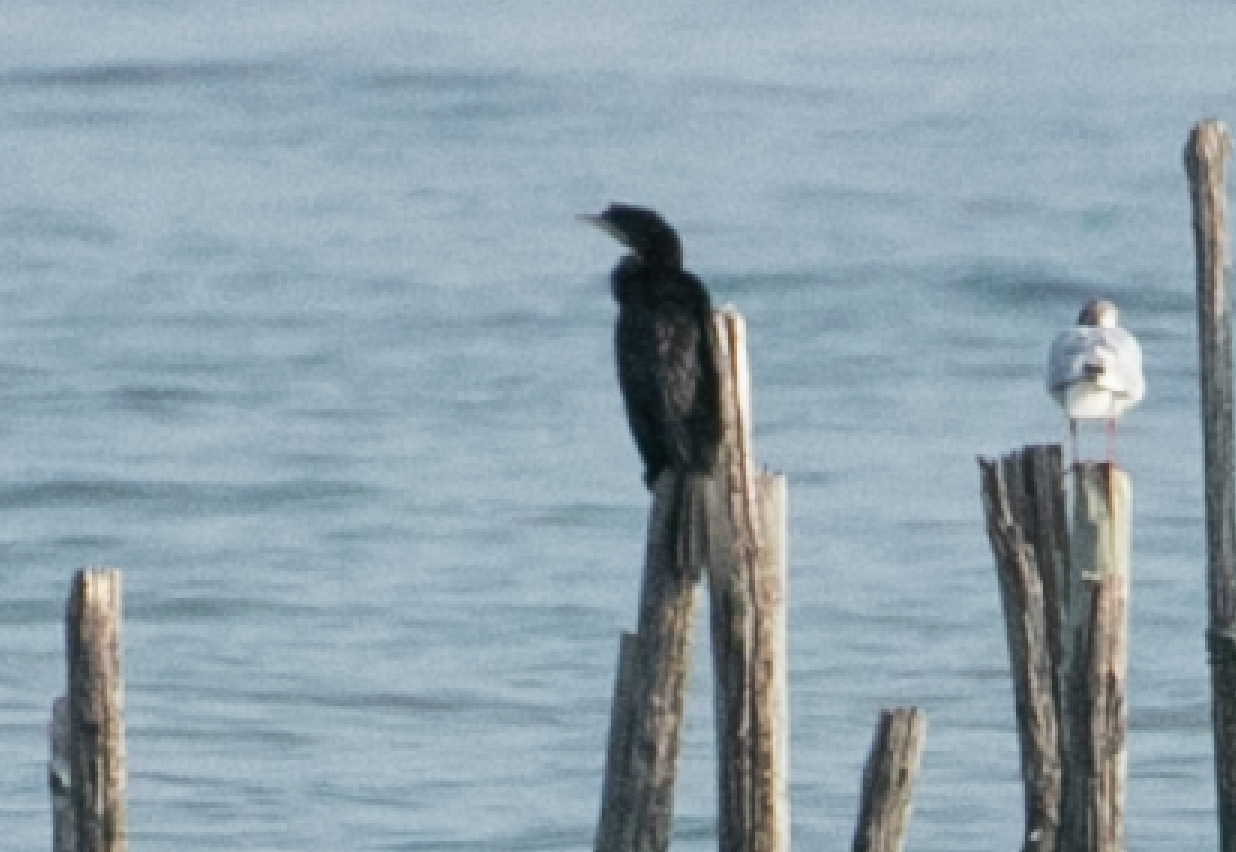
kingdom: Animalia
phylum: Chordata
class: Aves
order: Suliformes
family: Phalacrocoracidae
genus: Microcarbo
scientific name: Microcarbo pygmaeus
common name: Pygmy cormorant
